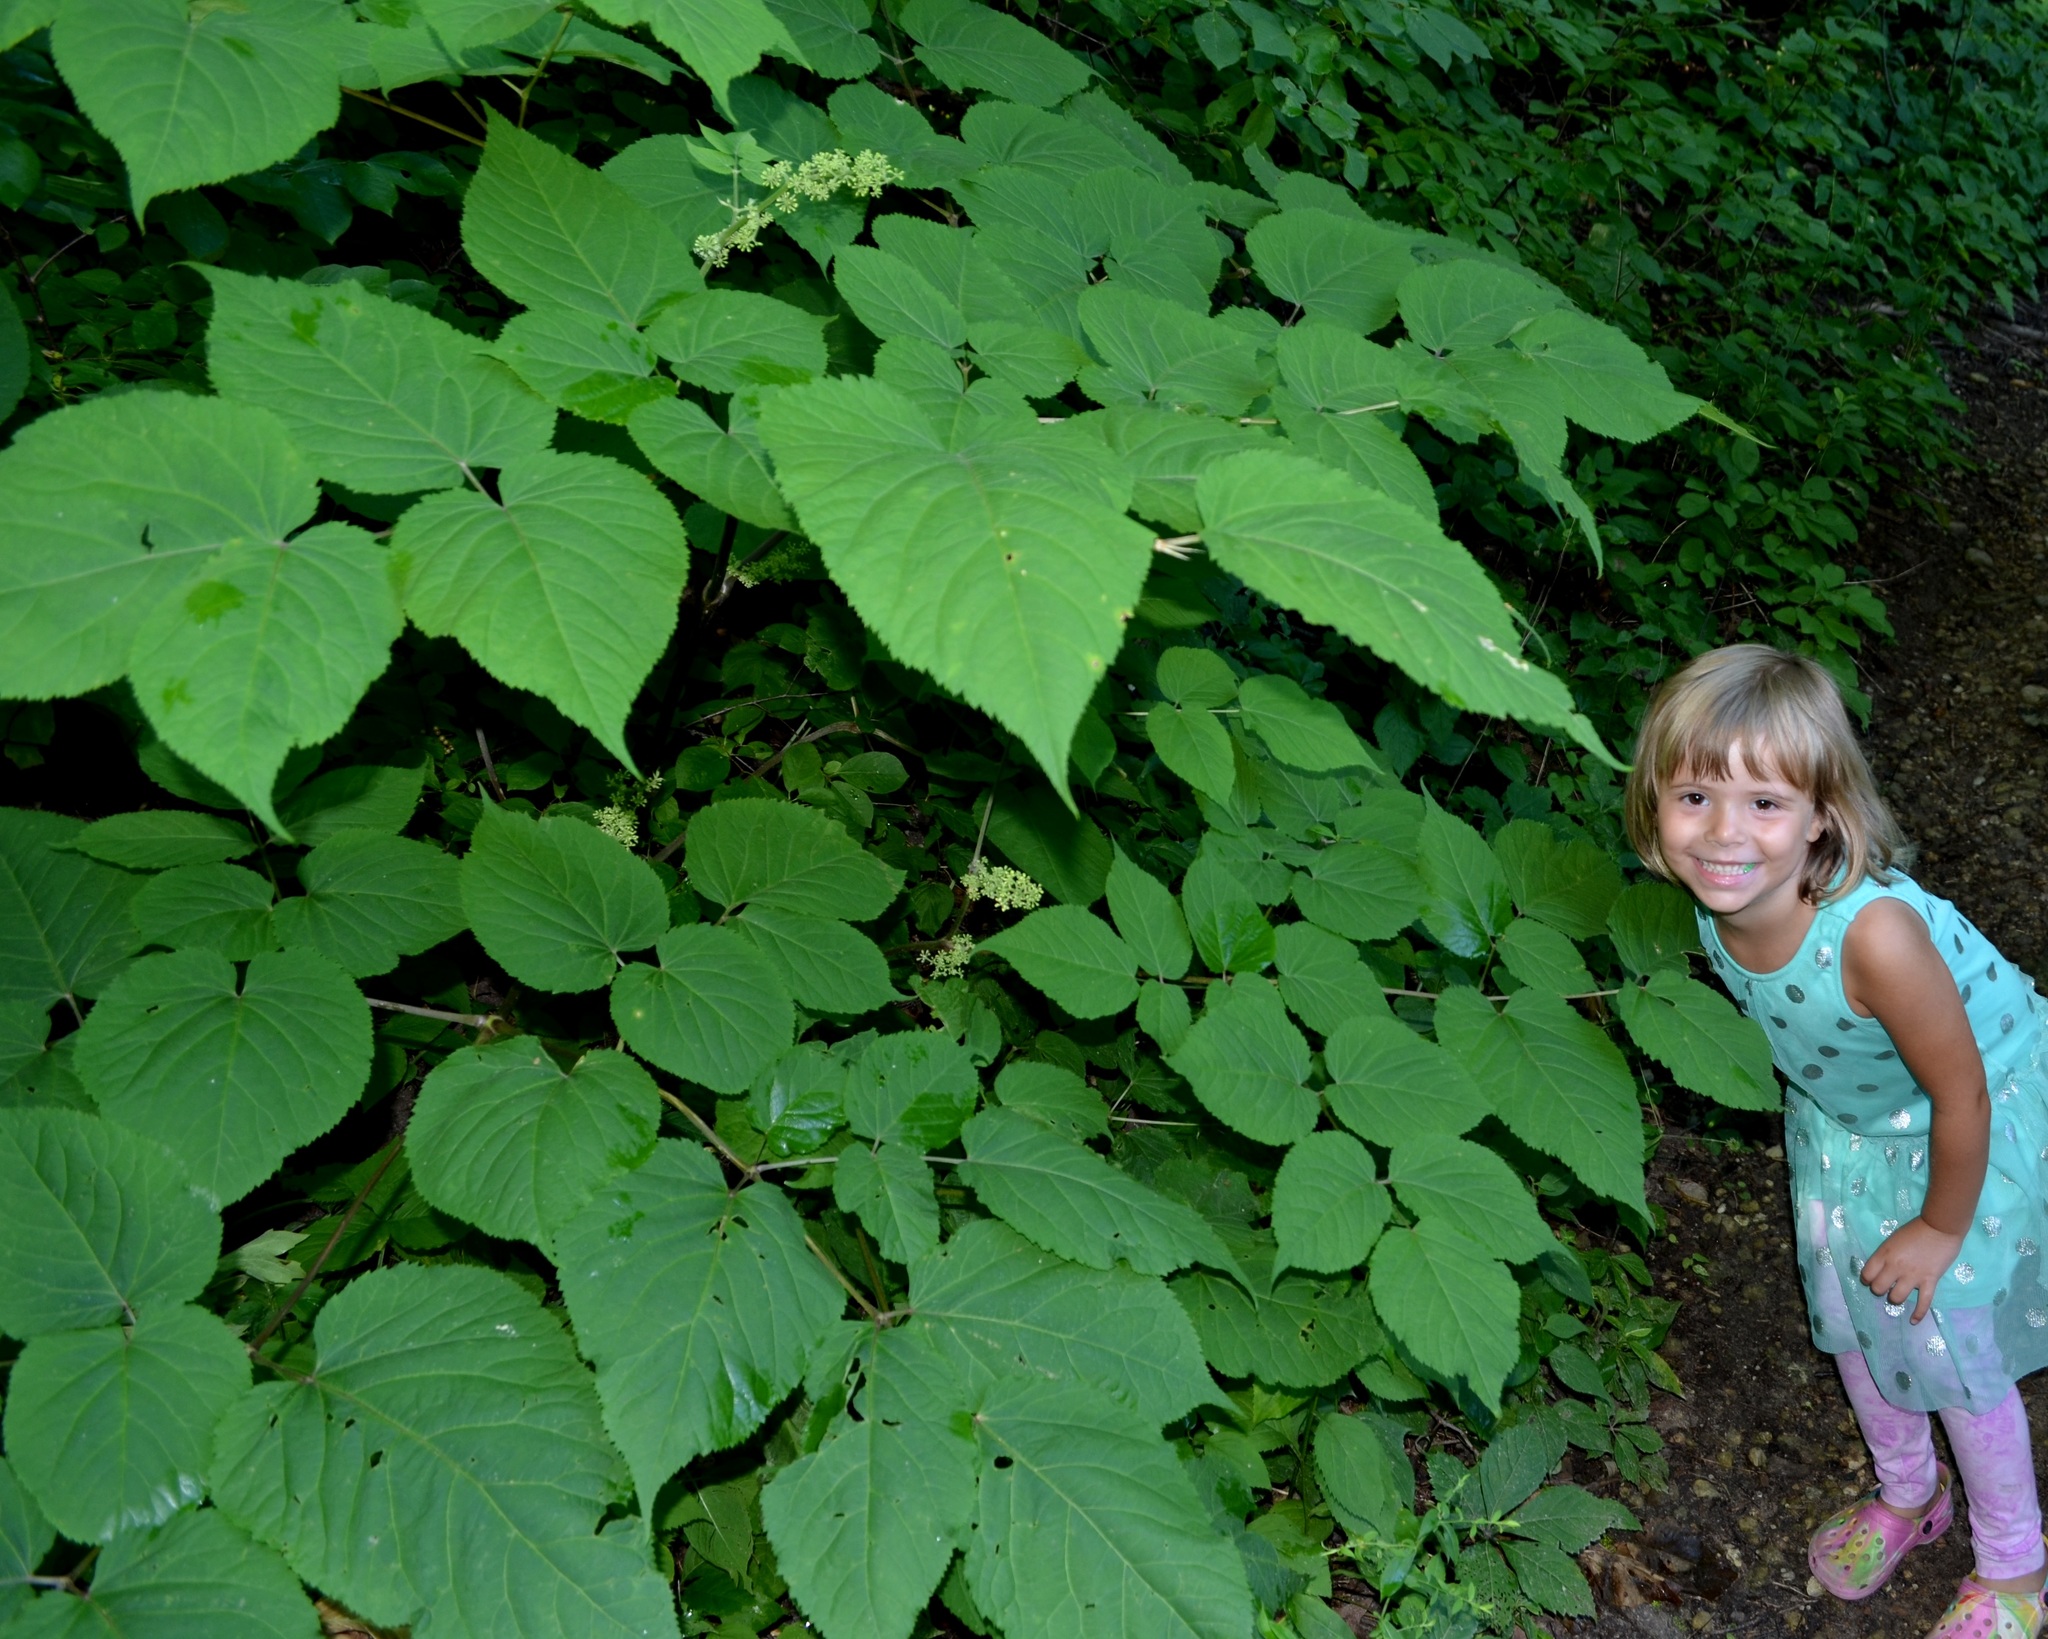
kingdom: Plantae
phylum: Tracheophyta
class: Magnoliopsida
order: Apiales
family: Araliaceae
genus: Aralia
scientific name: Aralia racemosa
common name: American-spikenard
